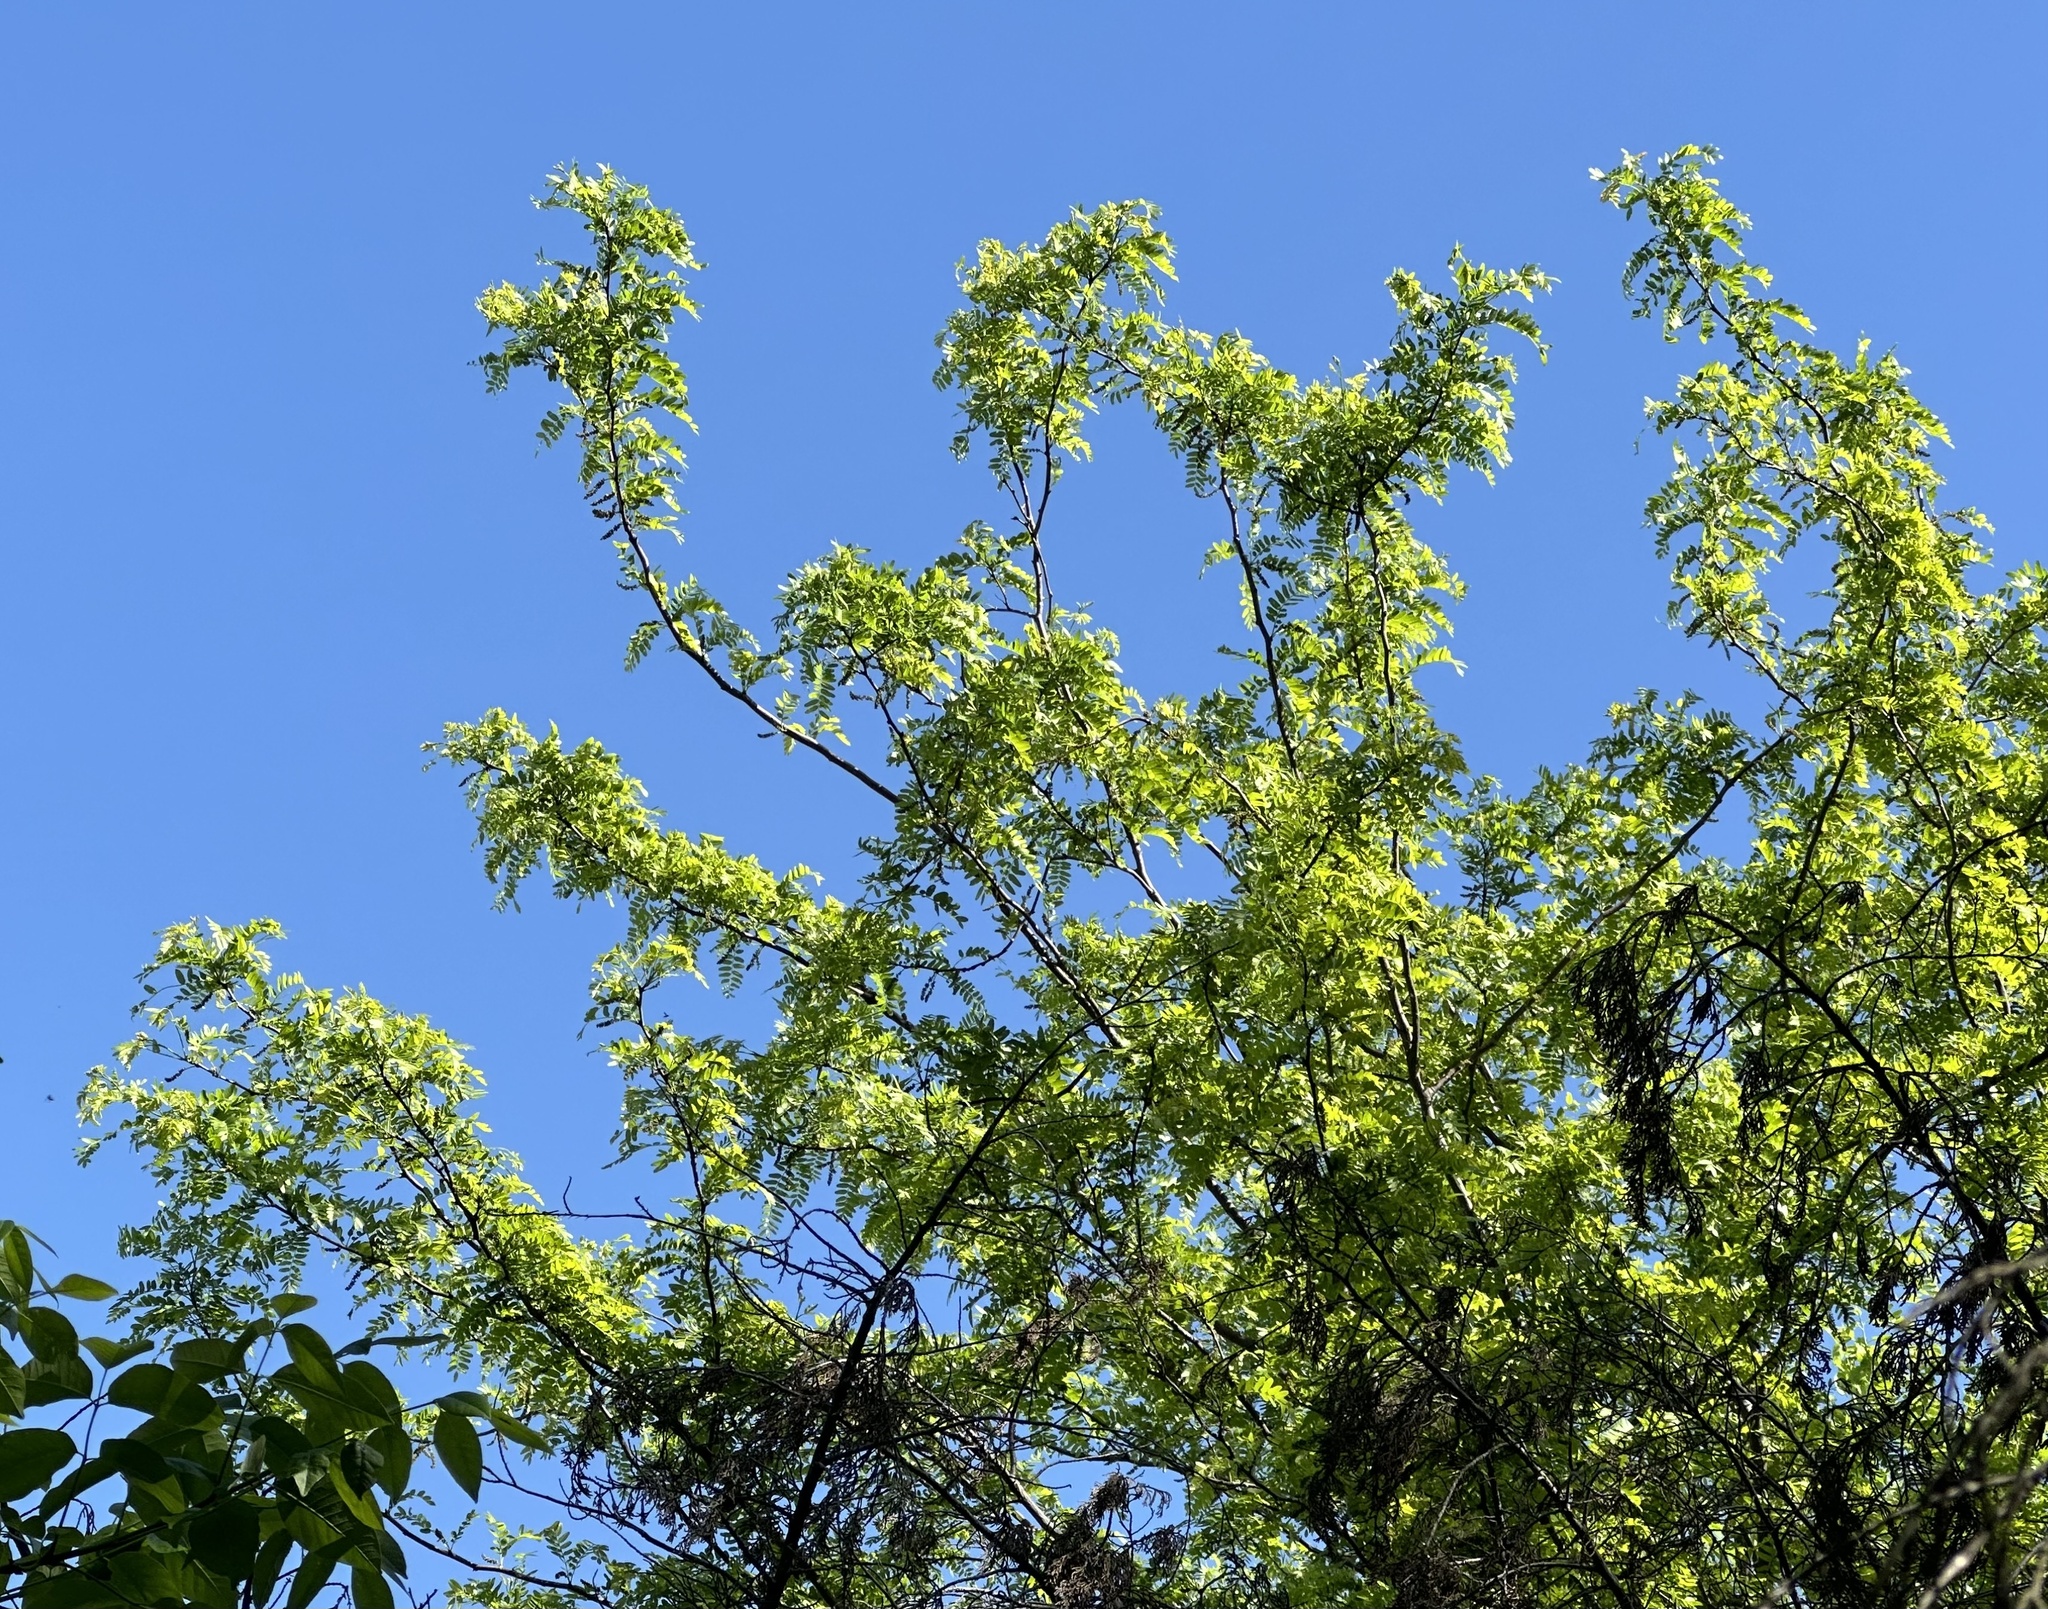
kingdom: Plantae
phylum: Tracheophyta
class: Magnoliopsida
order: Fabales
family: Fabaceae
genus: Gleditsia
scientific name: Gleditsia triacanthos
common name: Common honeylocust
